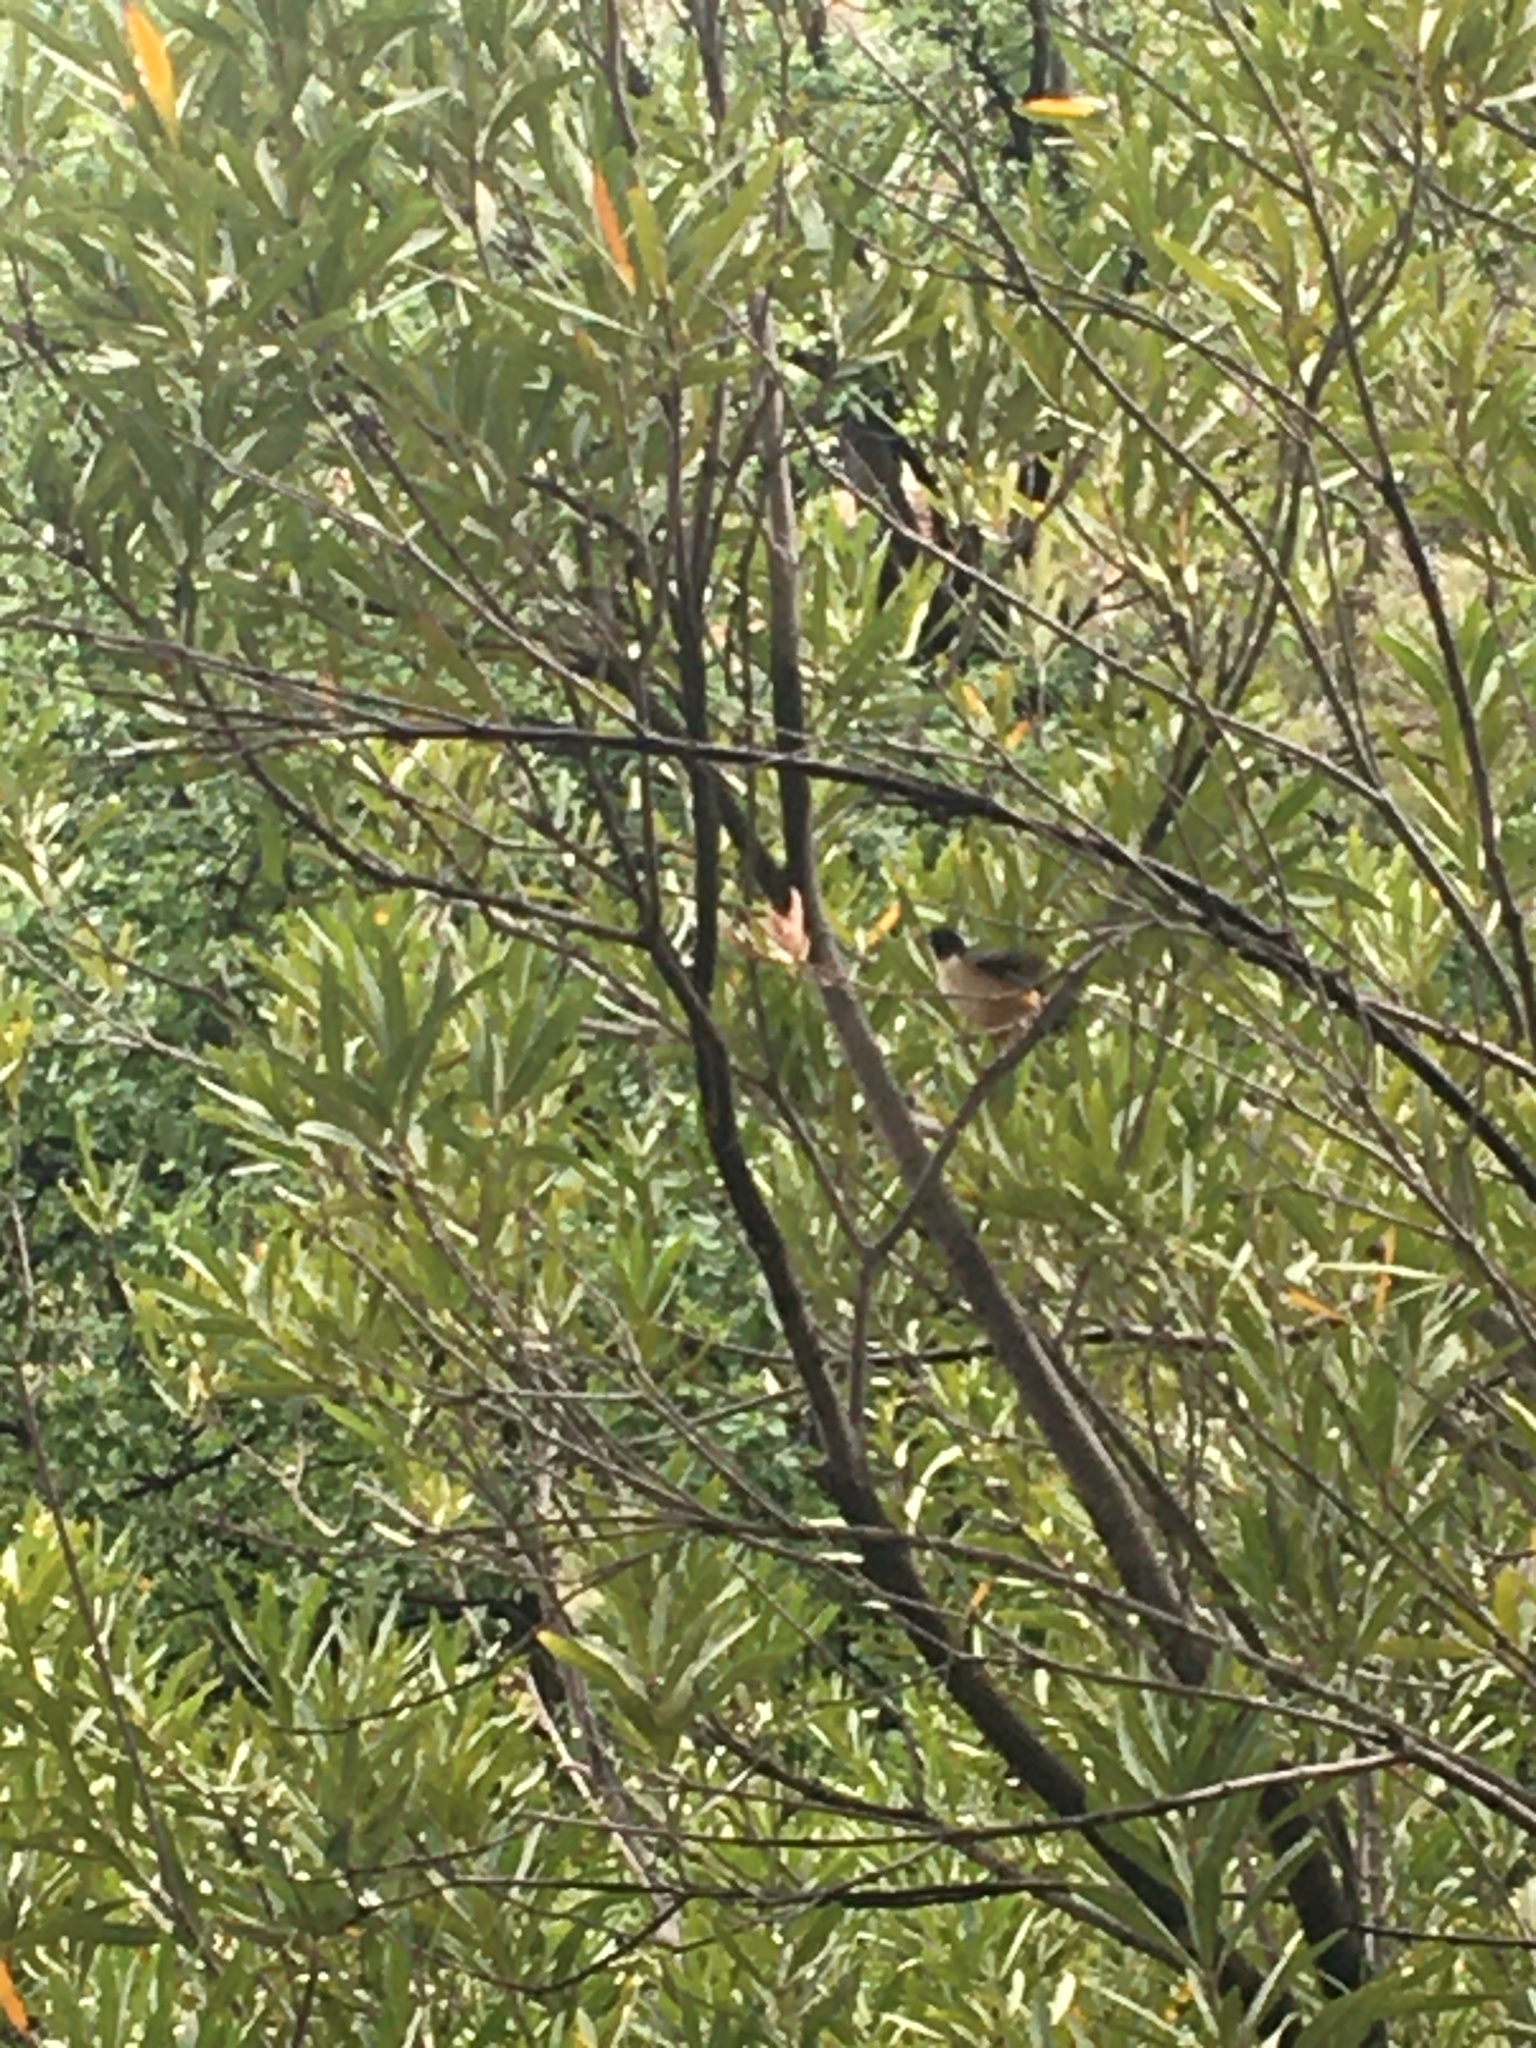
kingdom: Animalia
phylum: Chordata
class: Aves
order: Passeriformes
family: Malaconotidae
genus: Laniarius
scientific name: Laniarius ferrugineus
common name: Southern boubou
